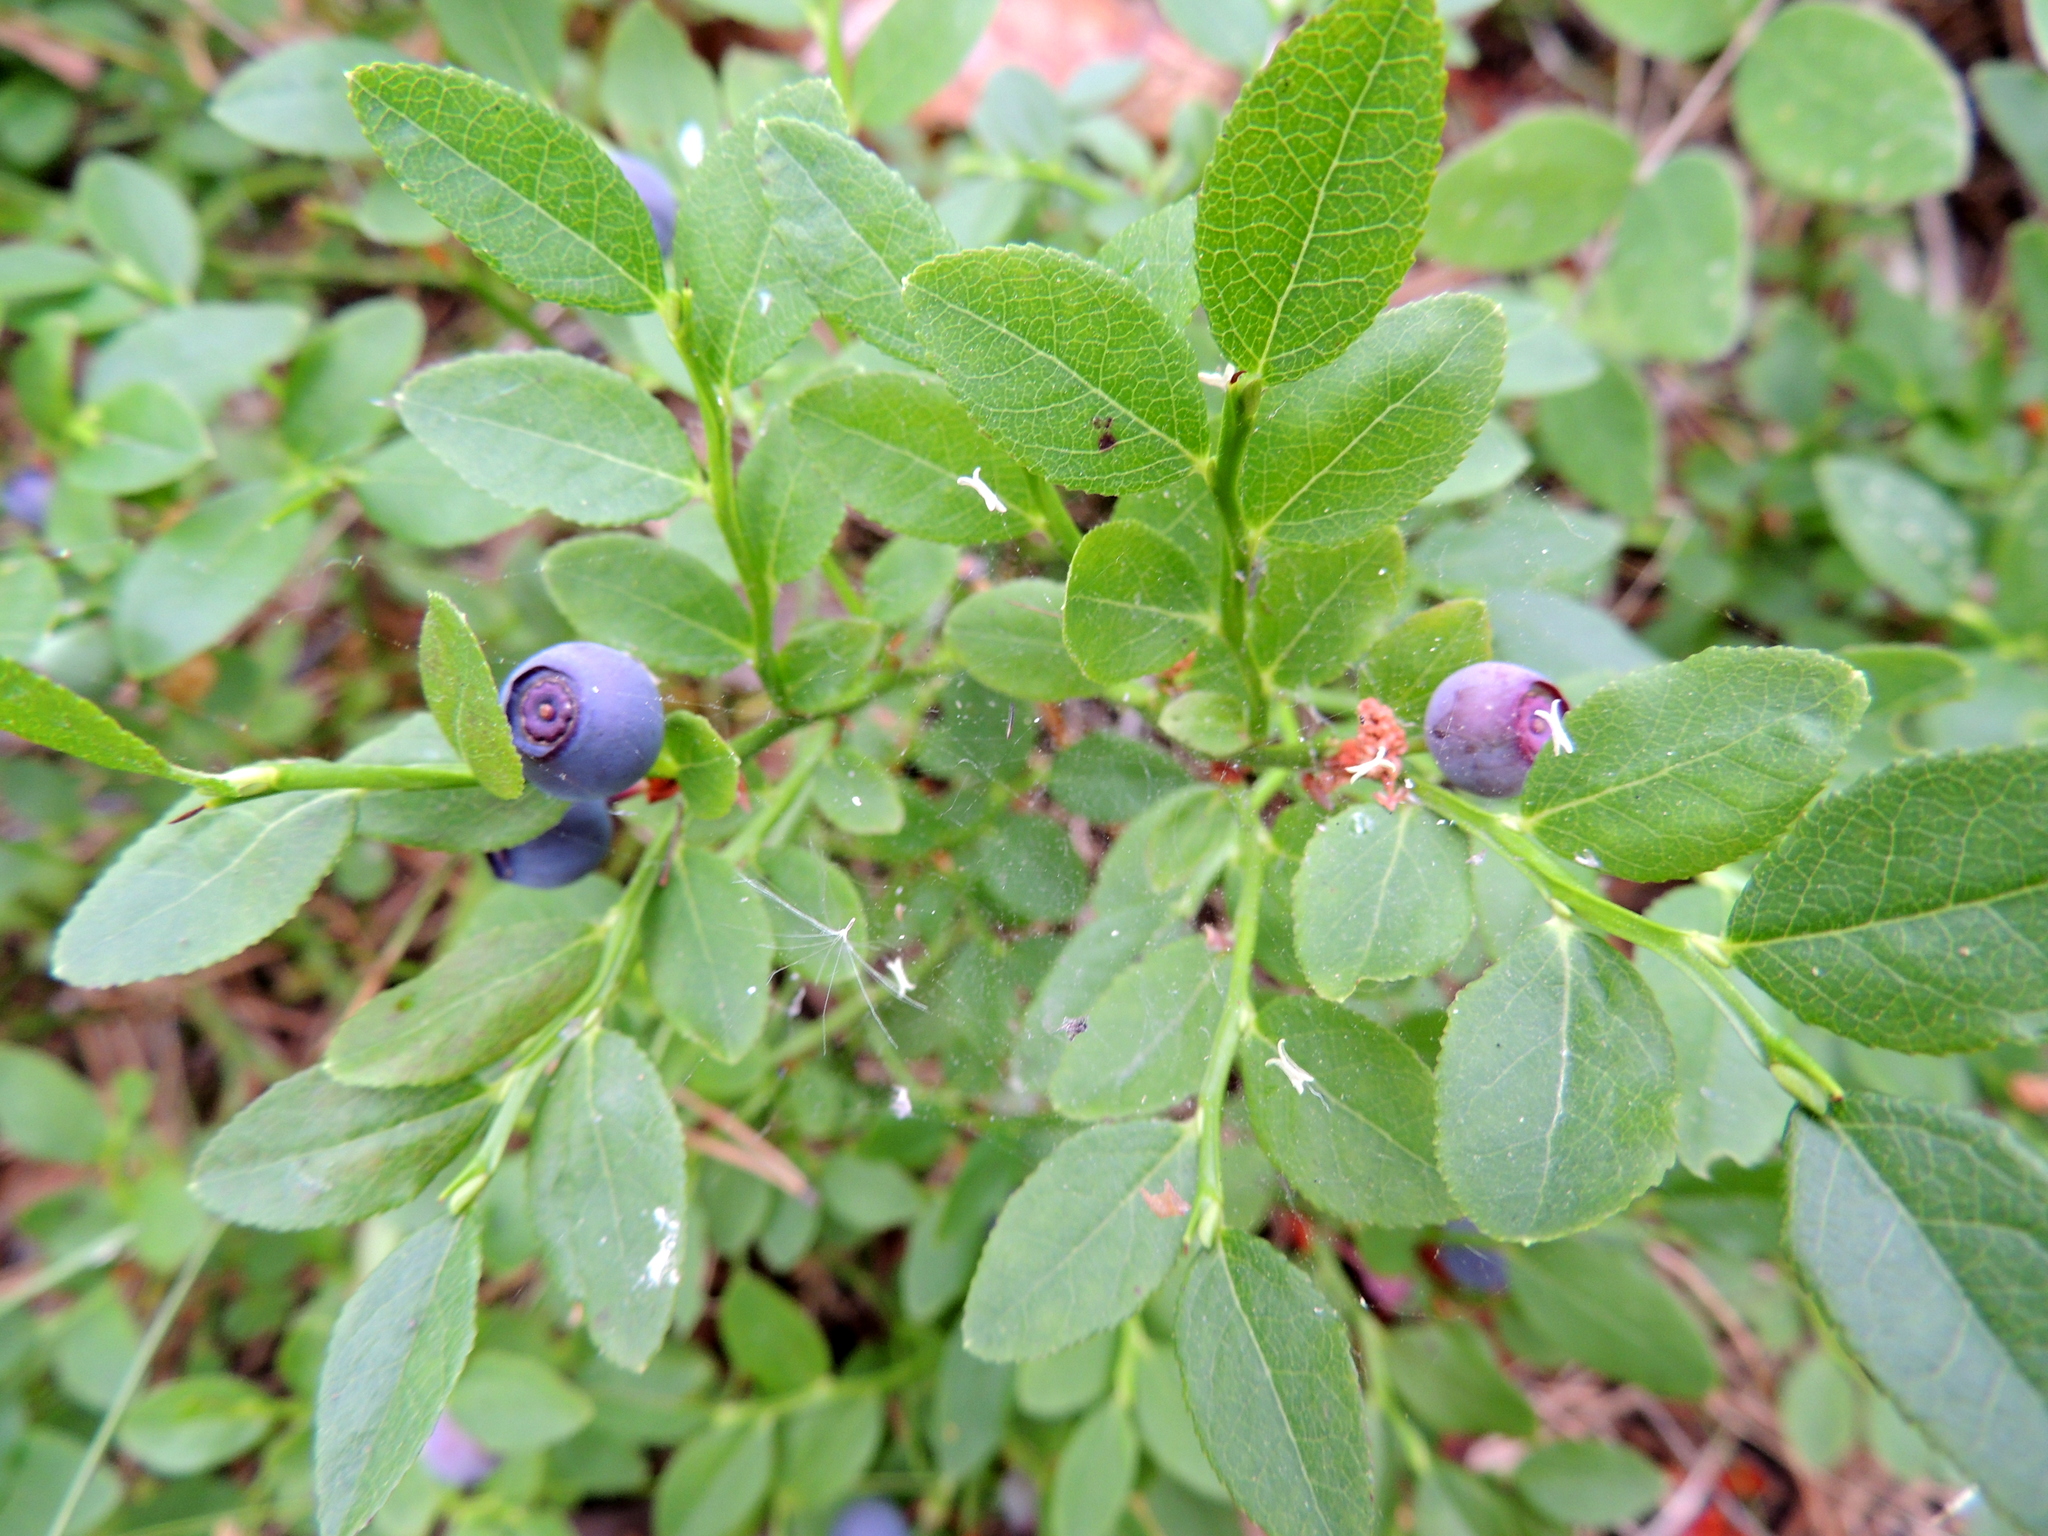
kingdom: Plantae
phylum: Tracheophyta
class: Magnoliopsida
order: Ericales
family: Ericaceae
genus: Vaccinium
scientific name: Vaccinium myrtillus
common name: Bilberry
